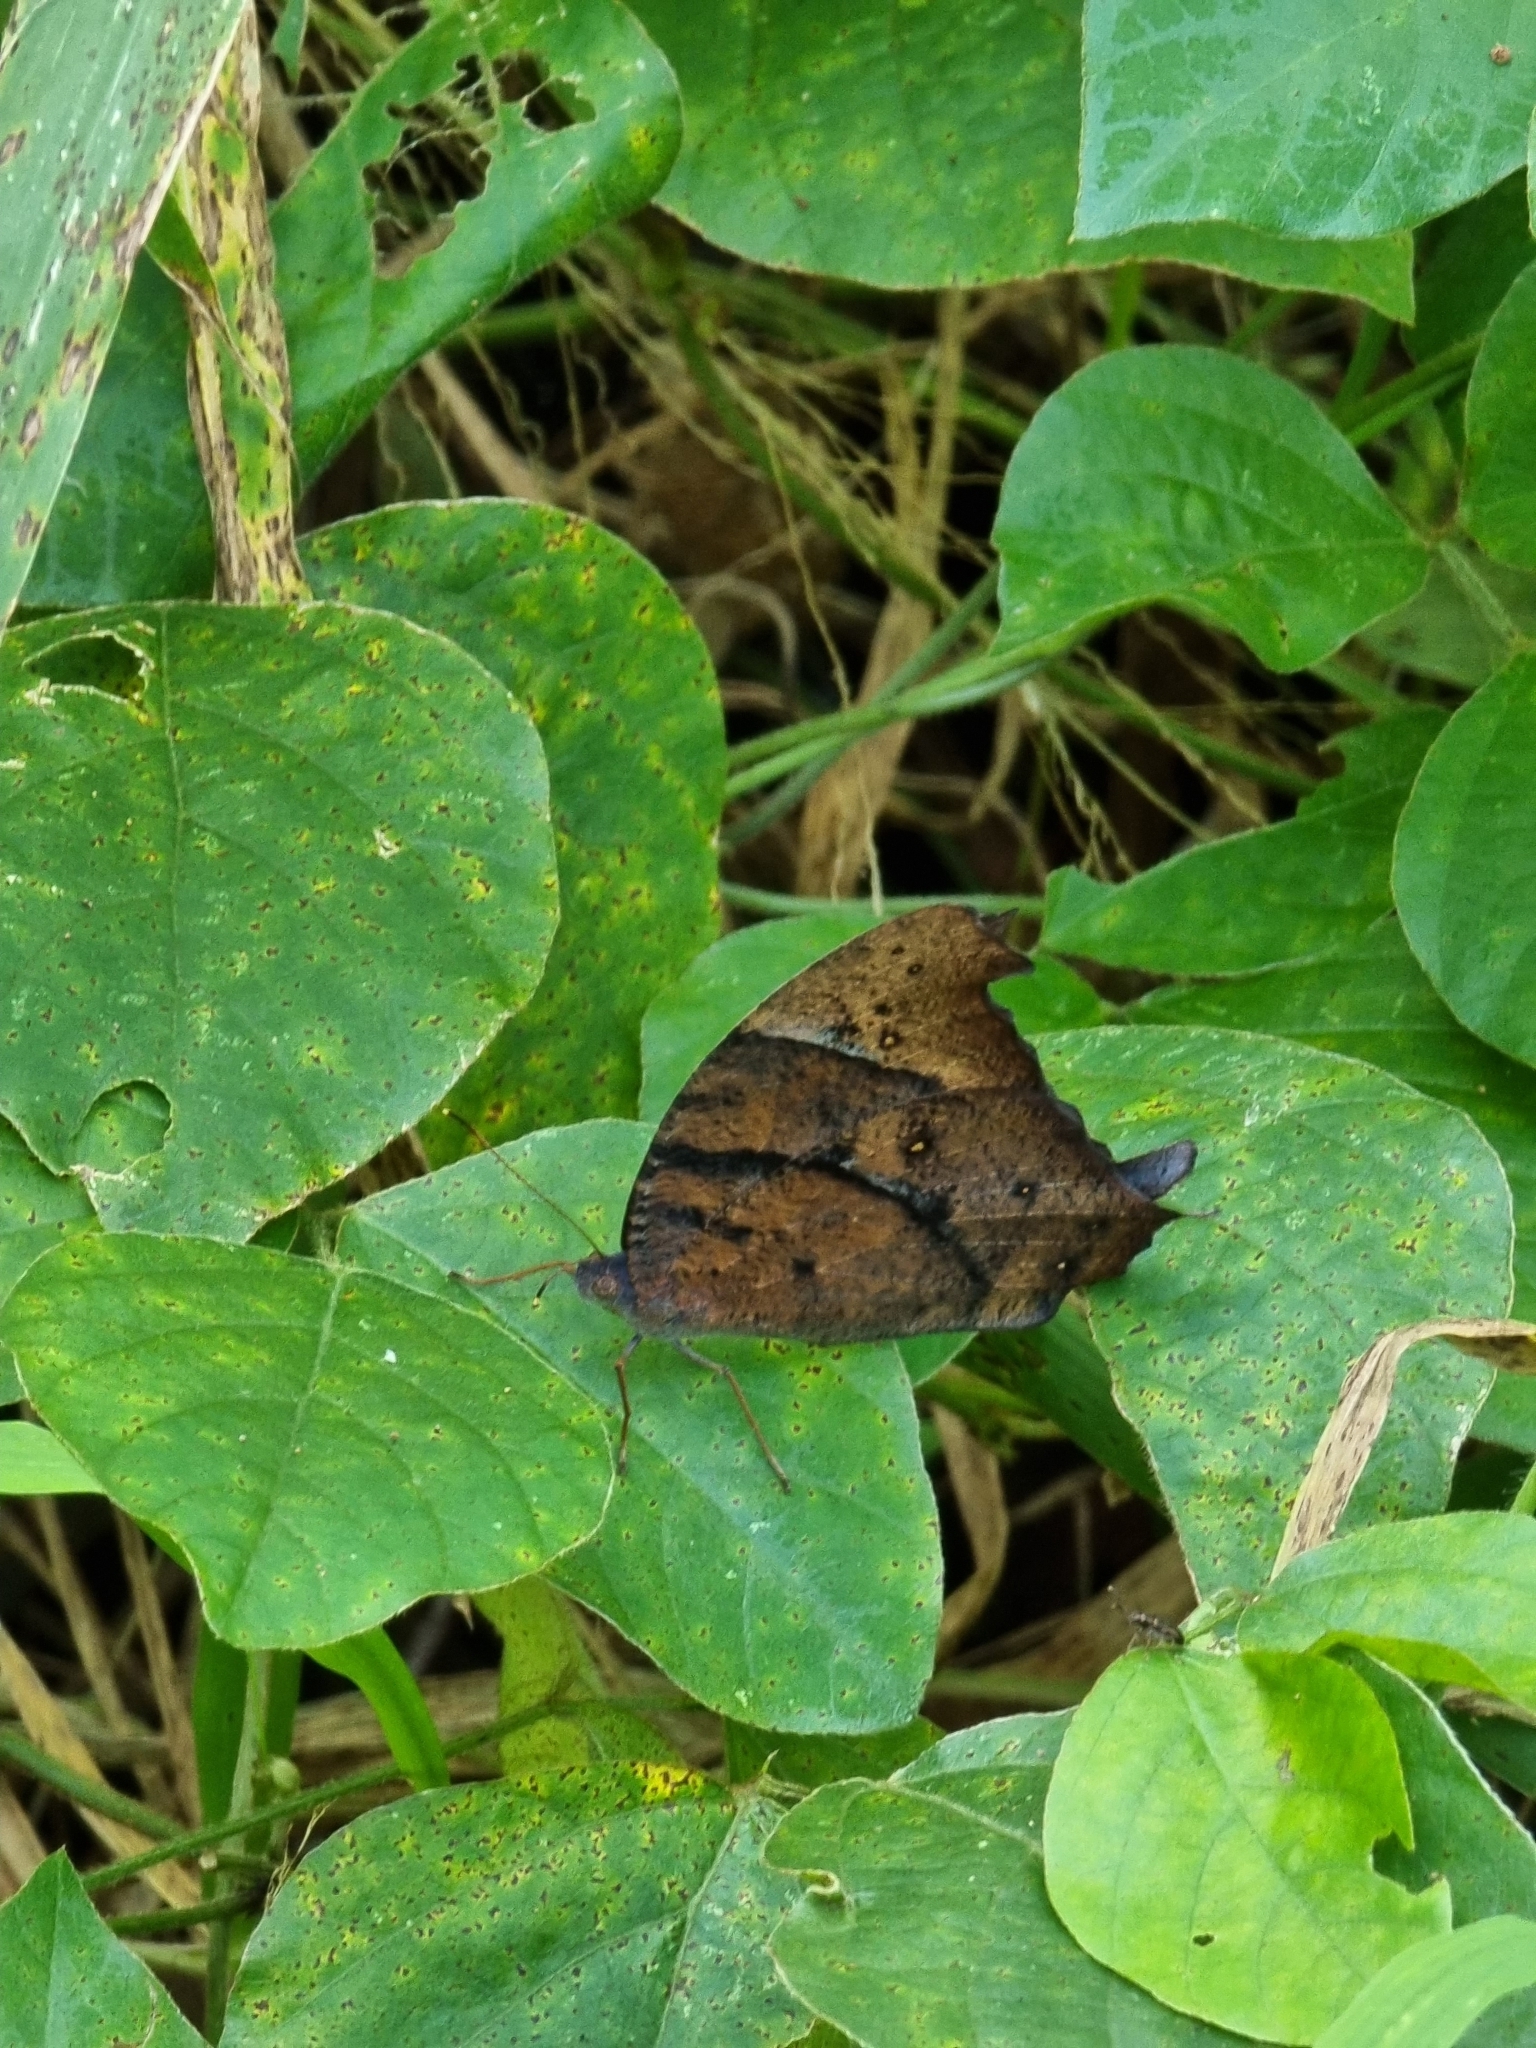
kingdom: Animalia
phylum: Arthropoda
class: Insecta
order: Lepidoptera
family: Nymphalidae
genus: Melanitis
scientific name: Melanitis leda
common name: Twilight brown
